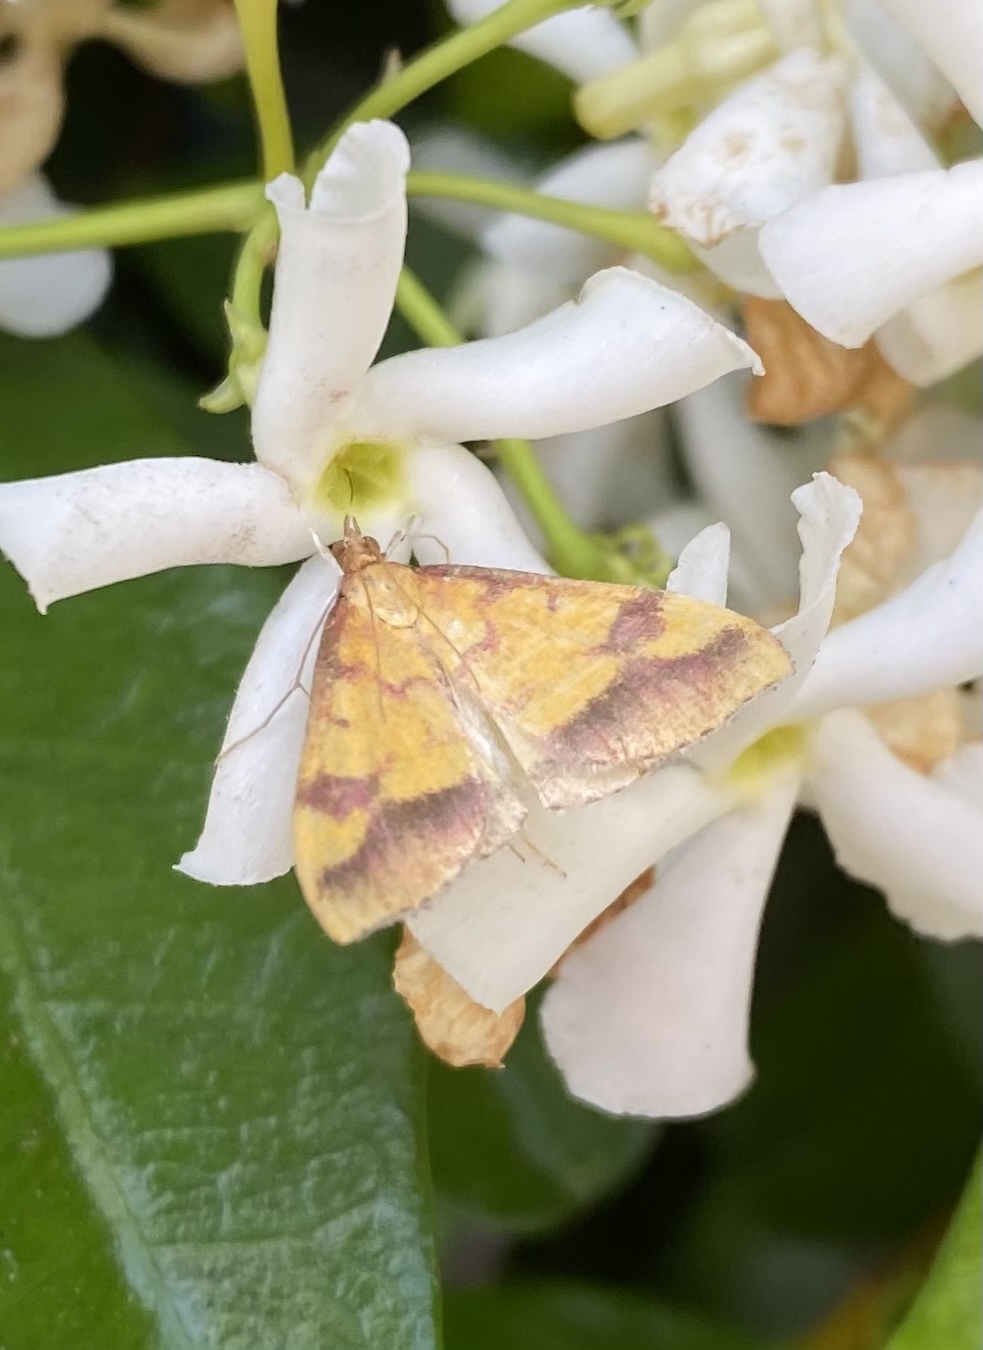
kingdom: Animalia
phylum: Arthropoda
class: Insecta
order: Lepidoptera
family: Crambidae
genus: Pyrausta
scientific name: Pyrausta perrubralis
